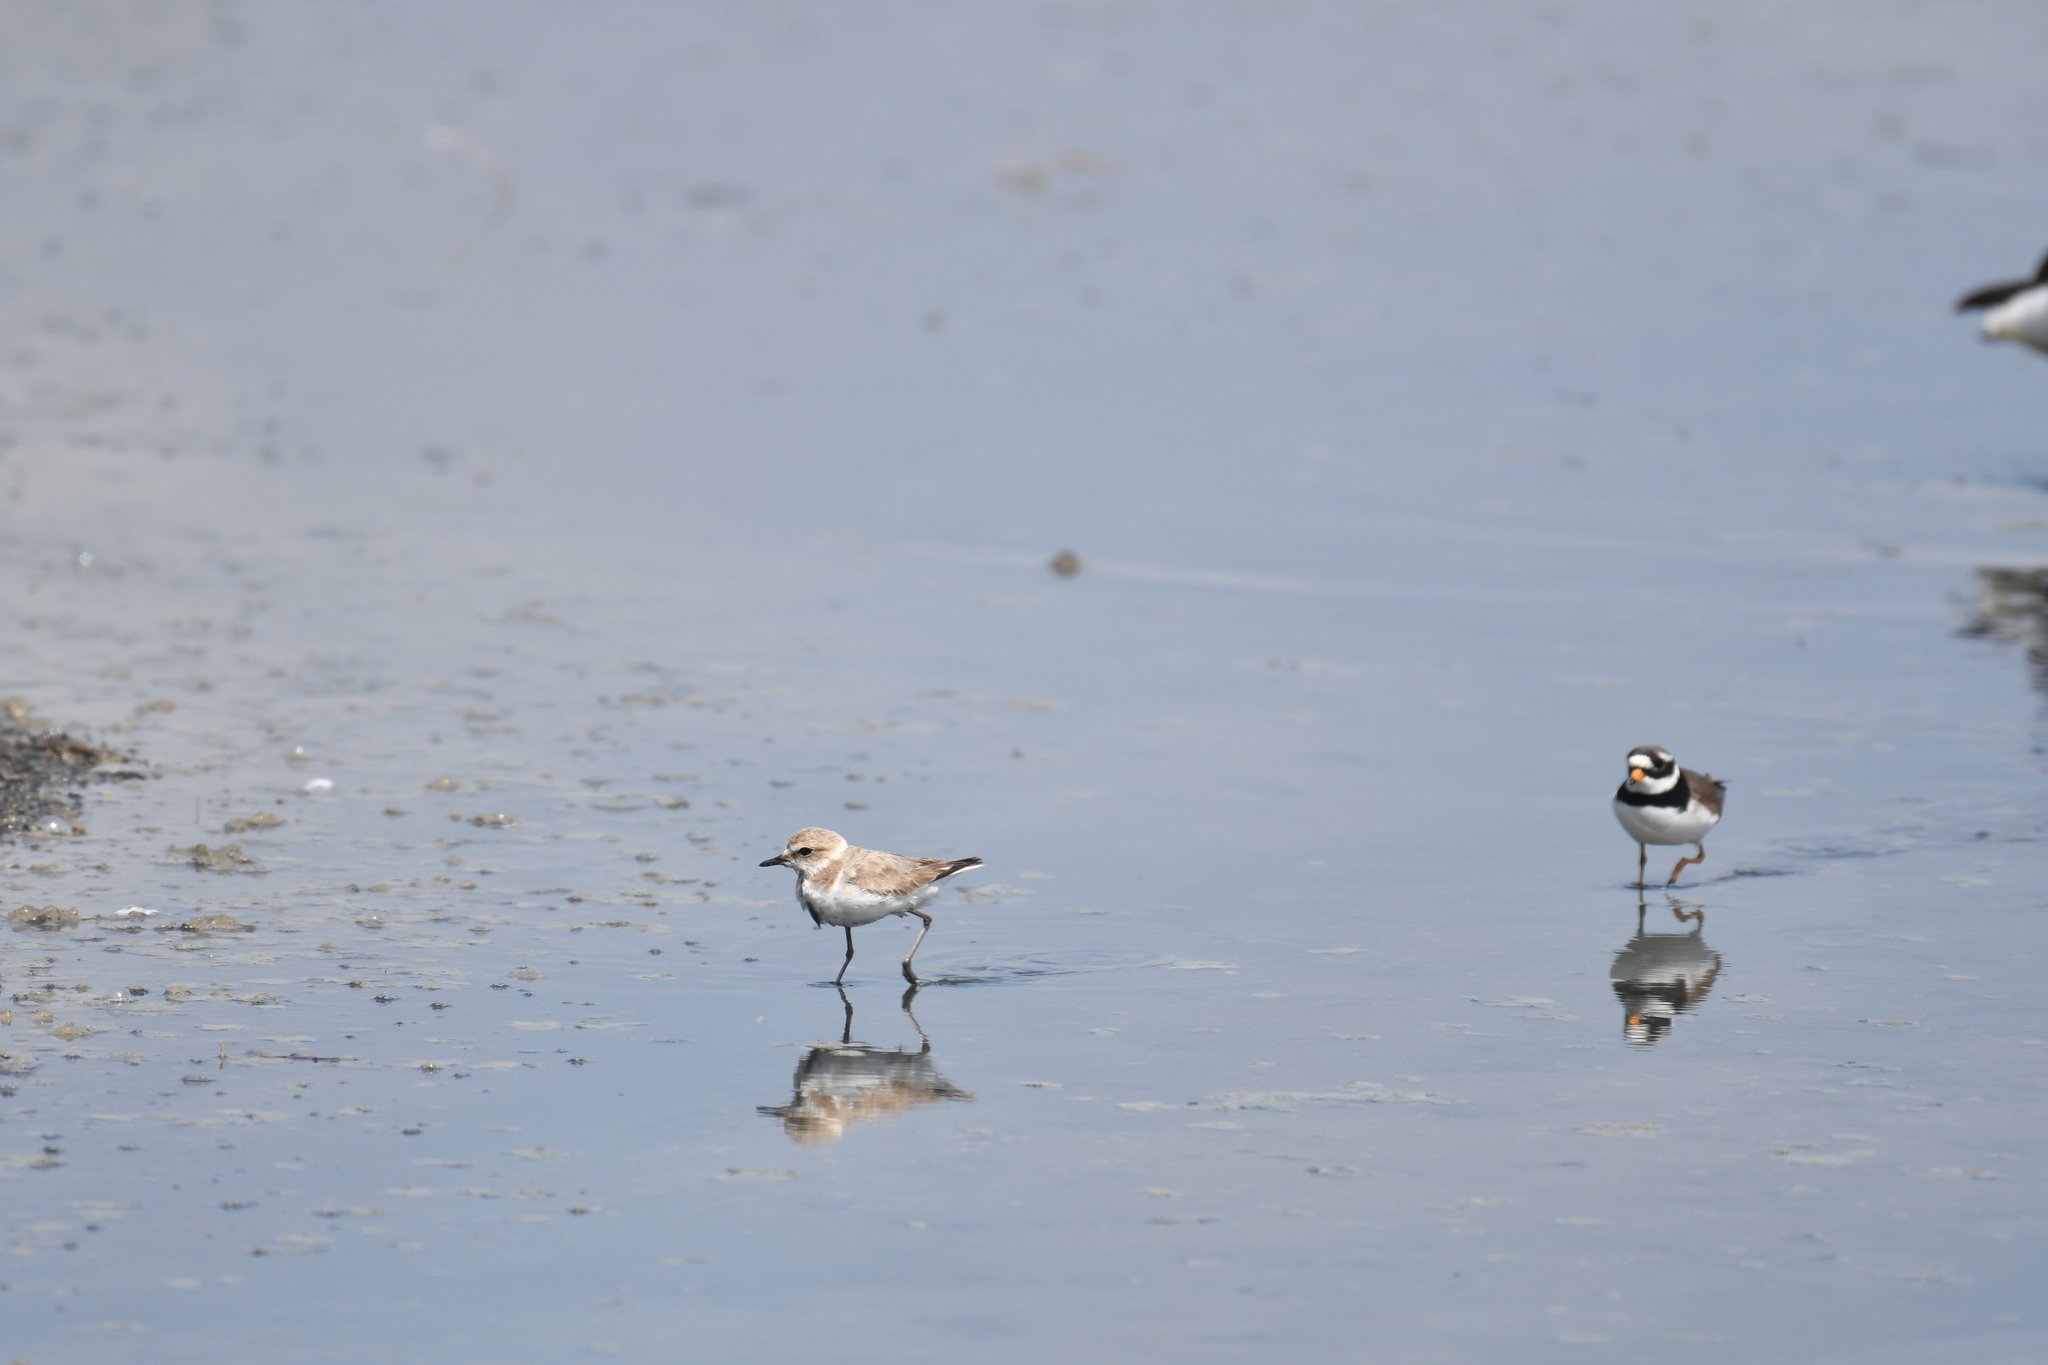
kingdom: Animalia
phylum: Chordata
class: Aves
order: Charadriiformes
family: Charadriidae
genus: Charadrius
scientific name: Charadrius hiaticula
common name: Common ringed plover
